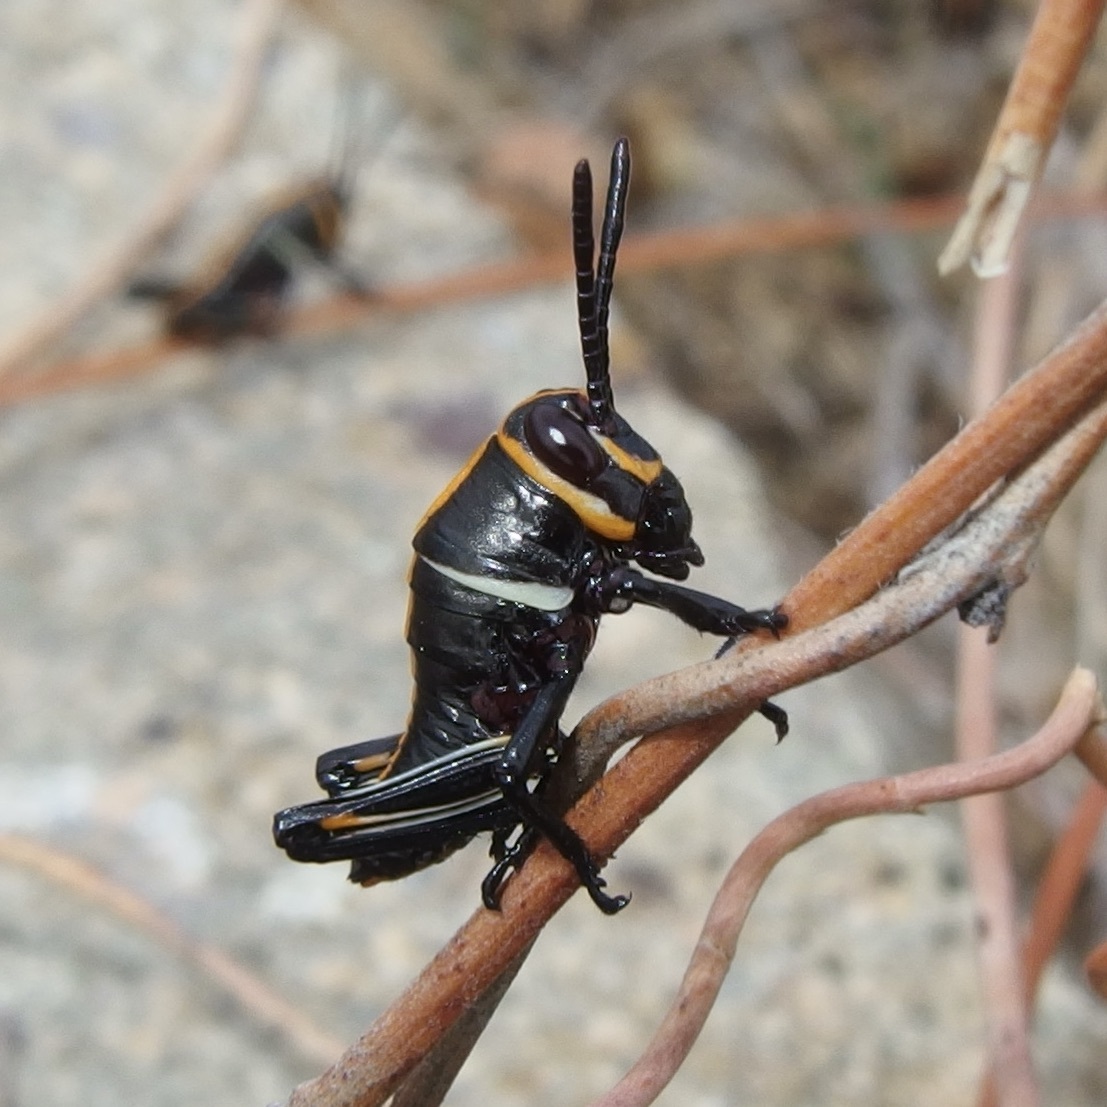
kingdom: Animalia
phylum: Arthropoda
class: Insecta
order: Orthoptera
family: Romaleidae
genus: Romalea
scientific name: Romalea
